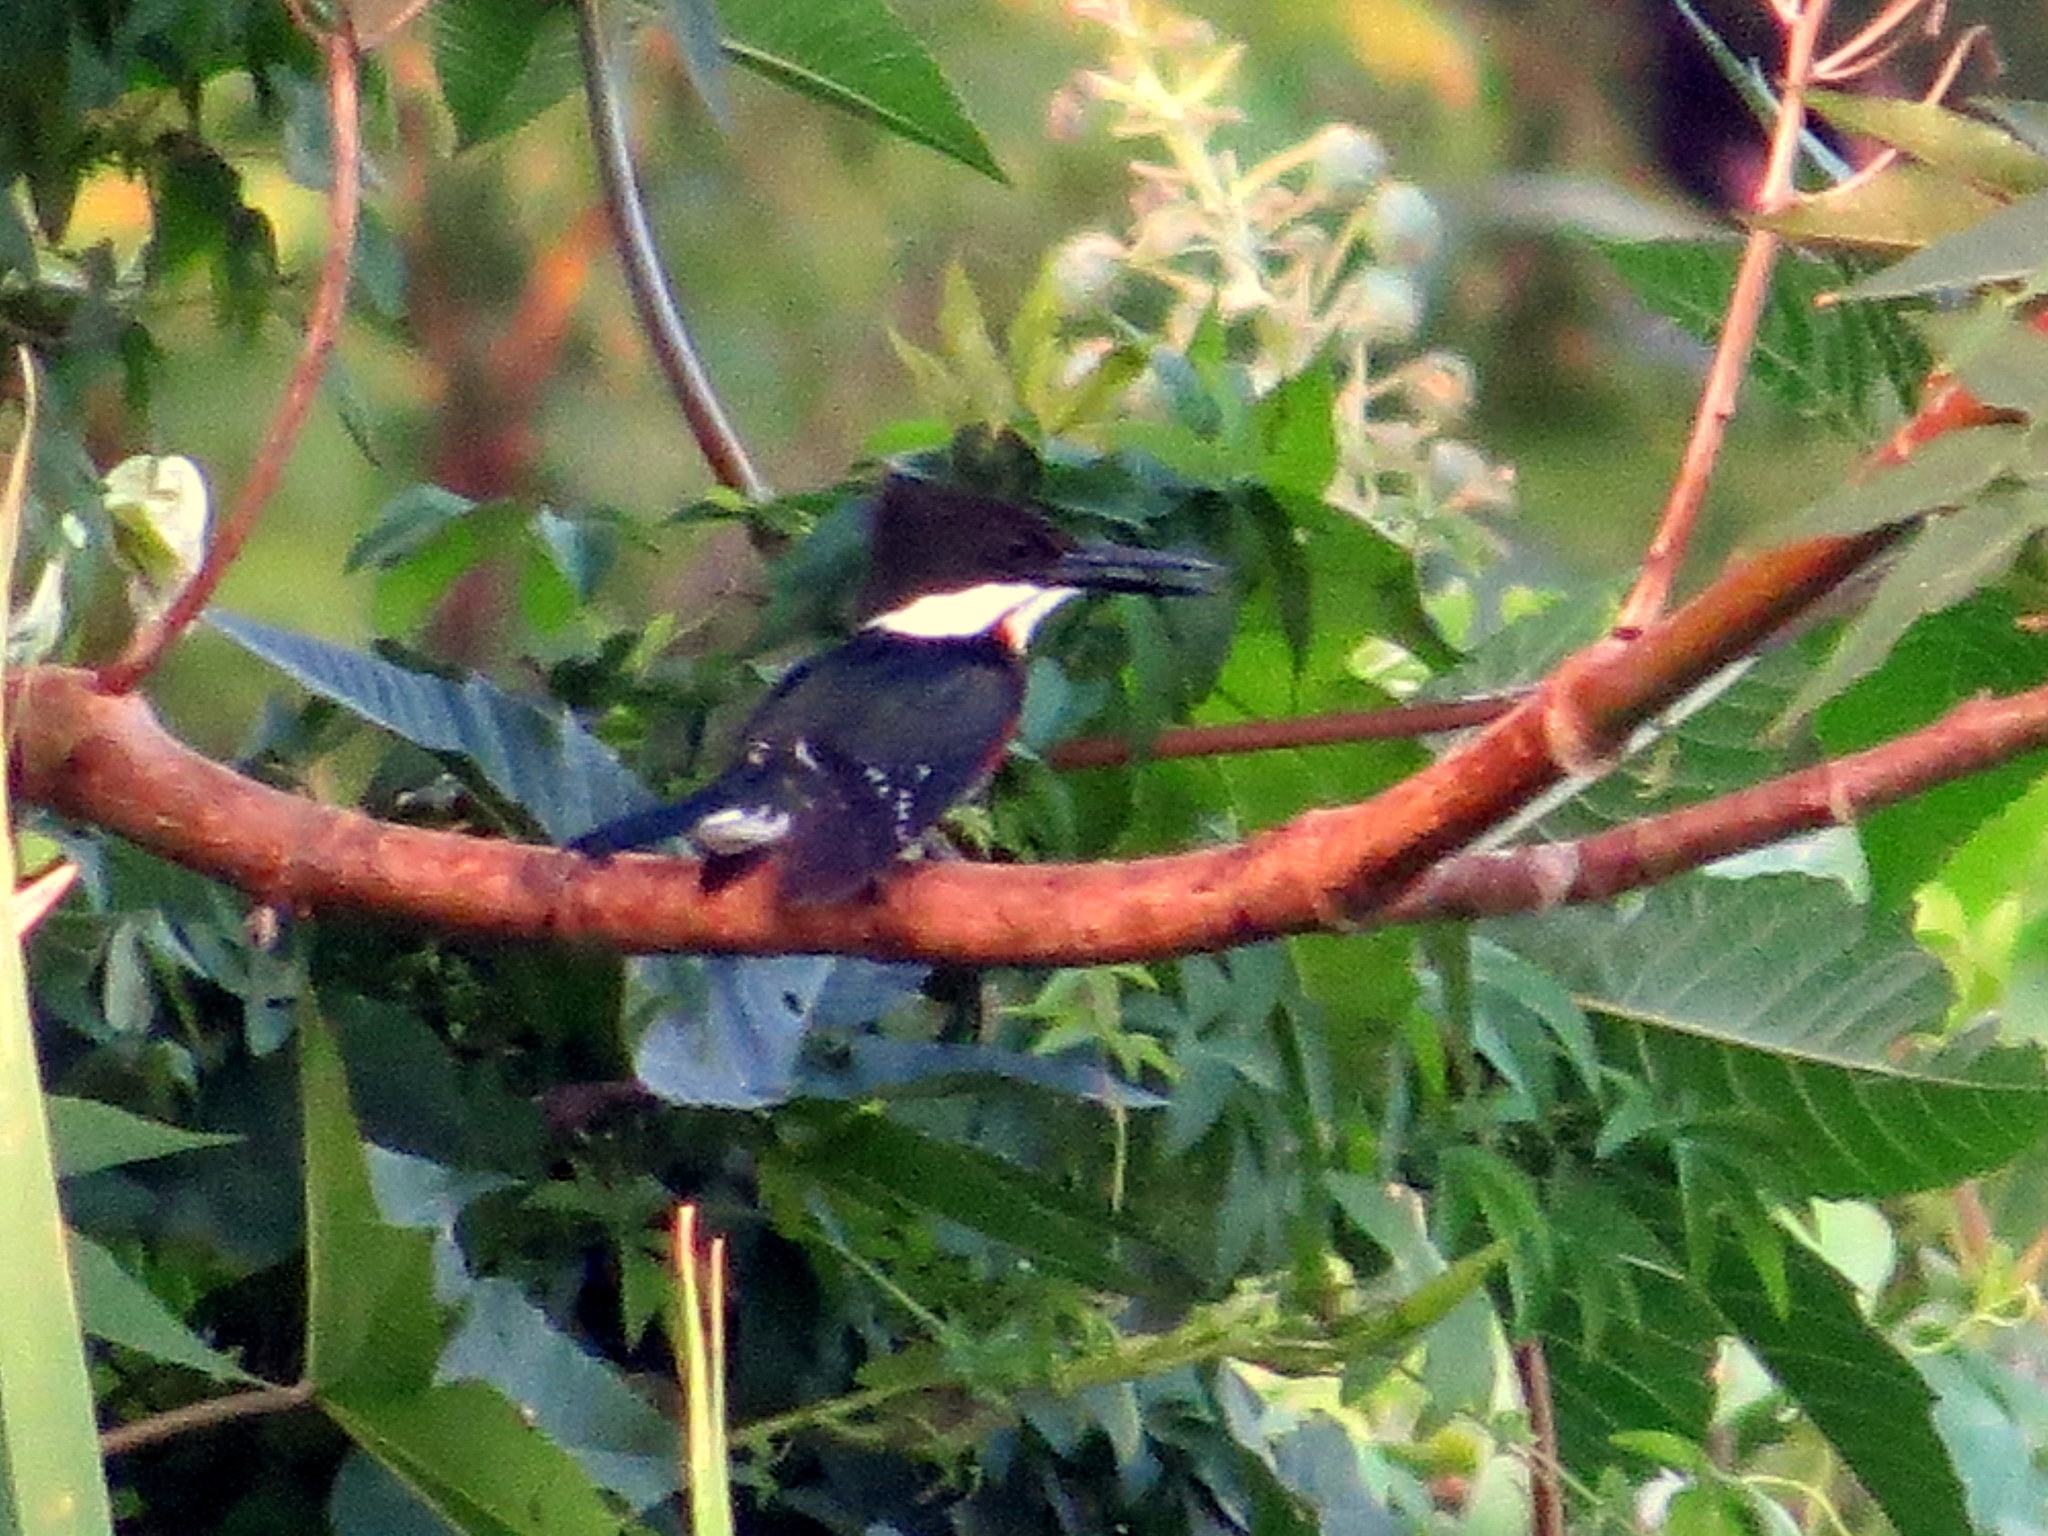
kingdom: Animalia
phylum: Chordata
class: Aves
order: Coraciiformes
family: Alcedinidae
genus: Chloroceryle
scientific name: Chloroceryle americana
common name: Green kingfisher
